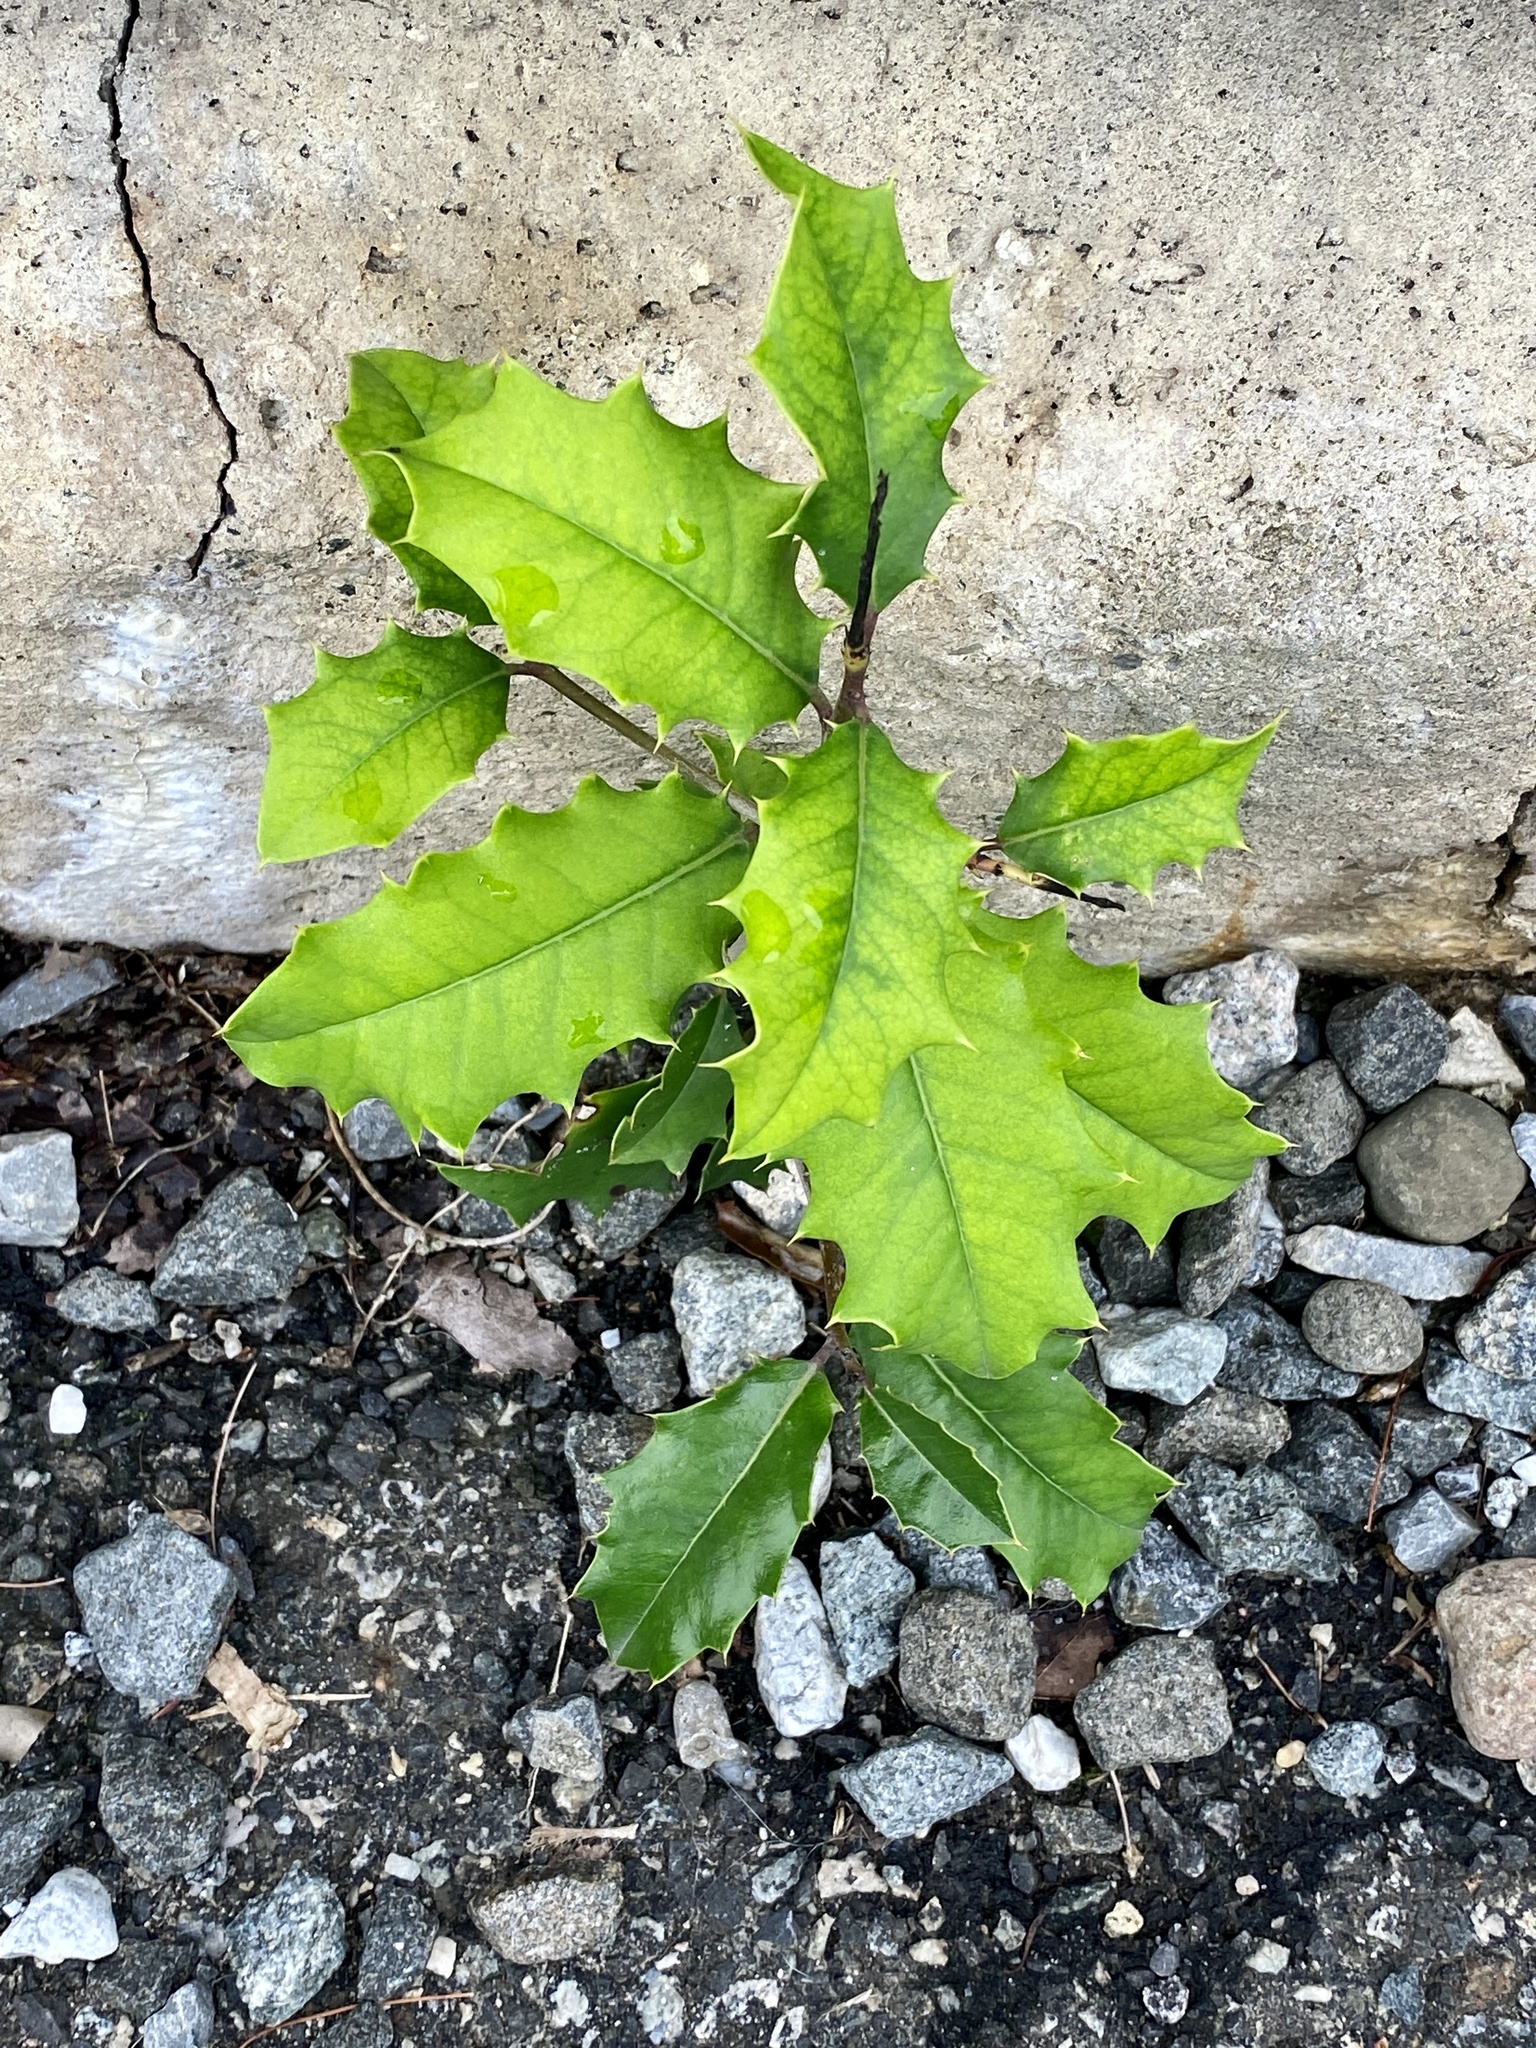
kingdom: Plantae
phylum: Tracheophyta
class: Magnoliopsida
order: Aquifoliales
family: Aquifoliaceae
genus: Ilex
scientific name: Ilex opaca
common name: American holly
